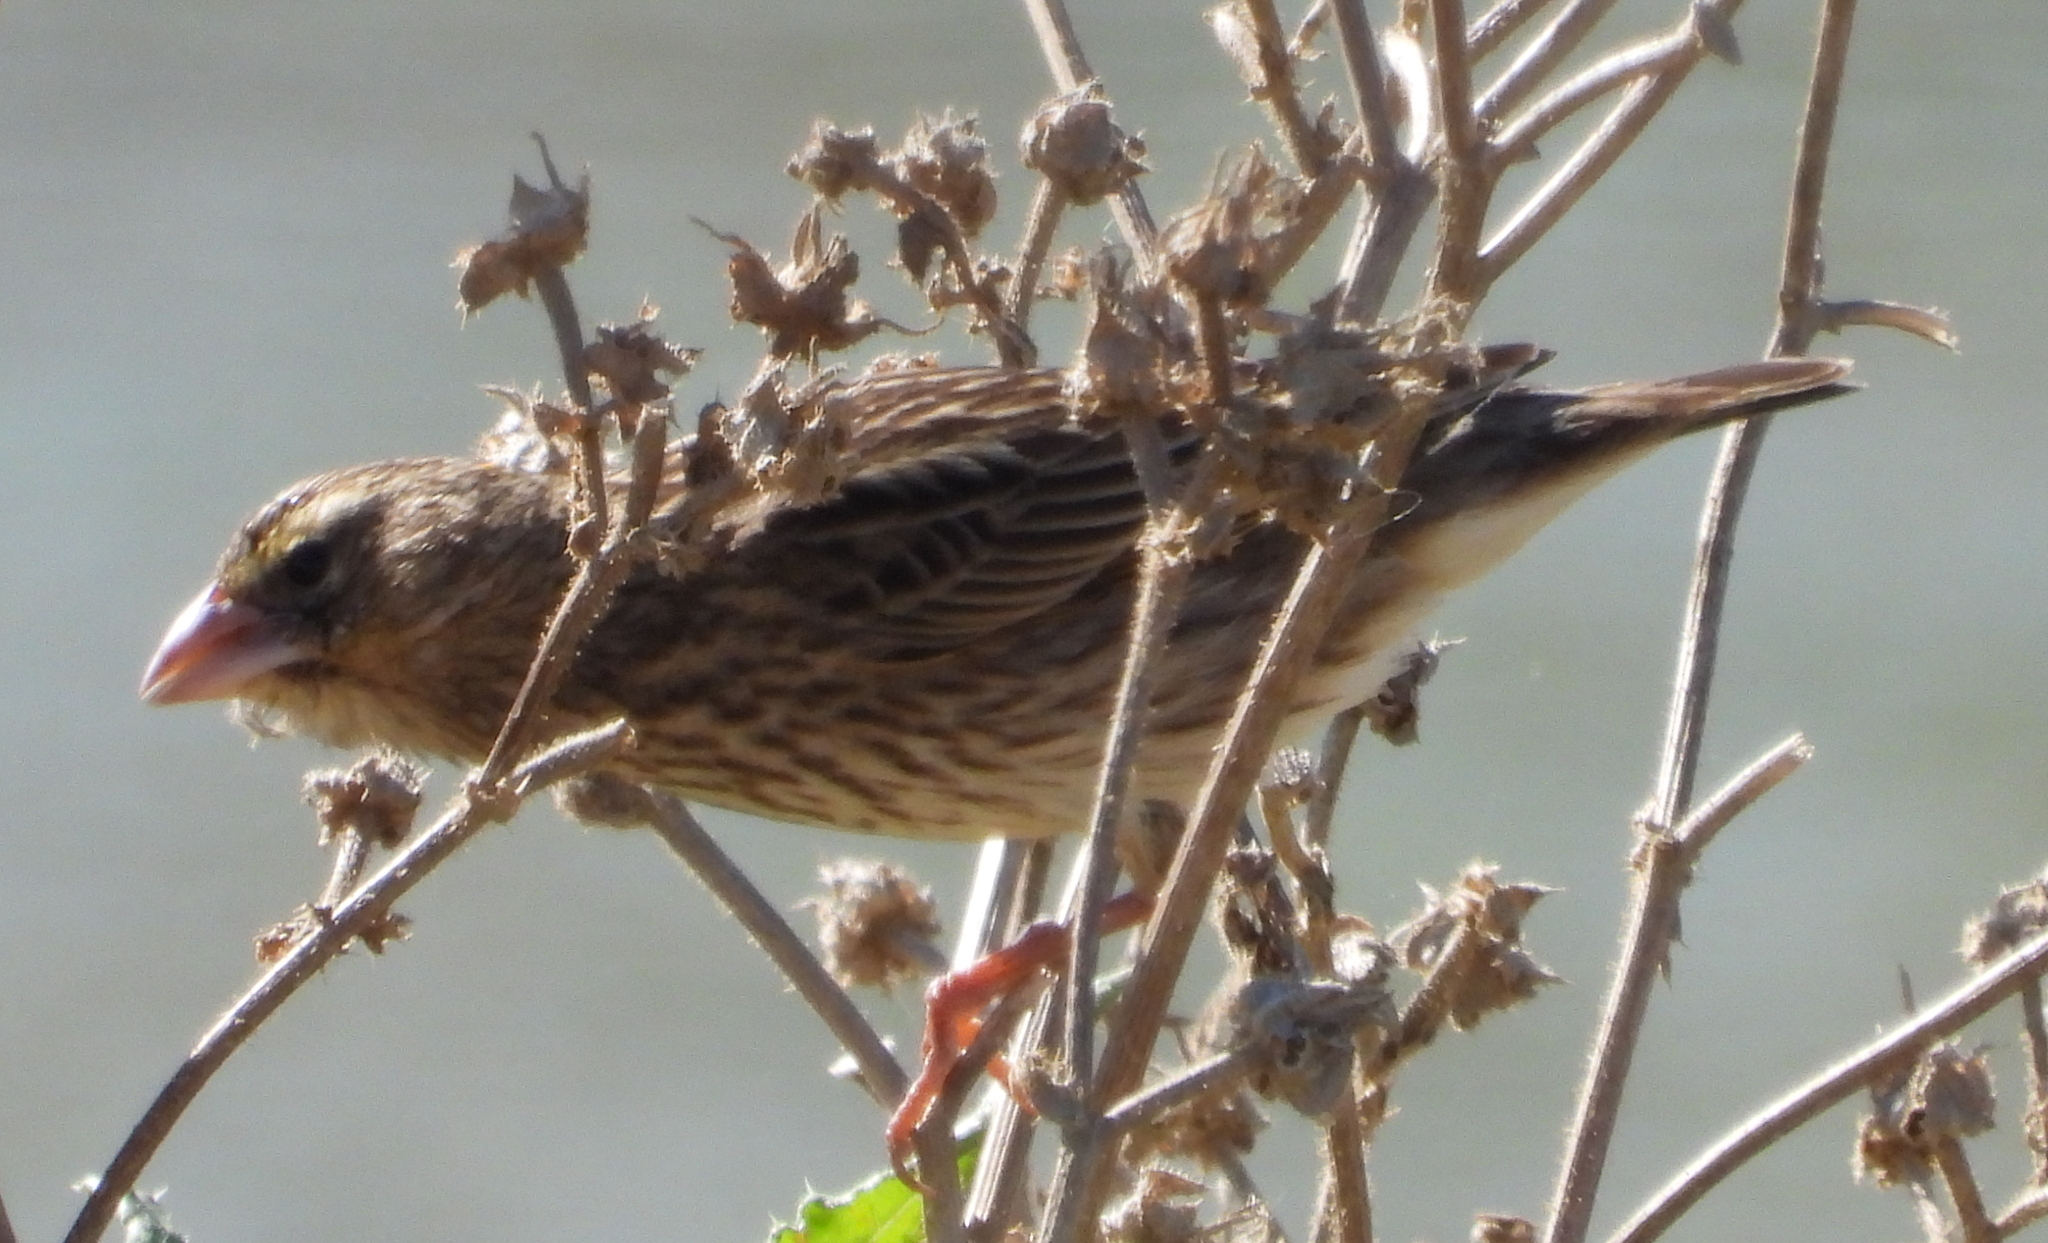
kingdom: Animalia
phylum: Chordata
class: Aves
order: Passeriformes
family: Ploceidae
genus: Euplectes
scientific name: Euplectes orix
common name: Southern red bishop
